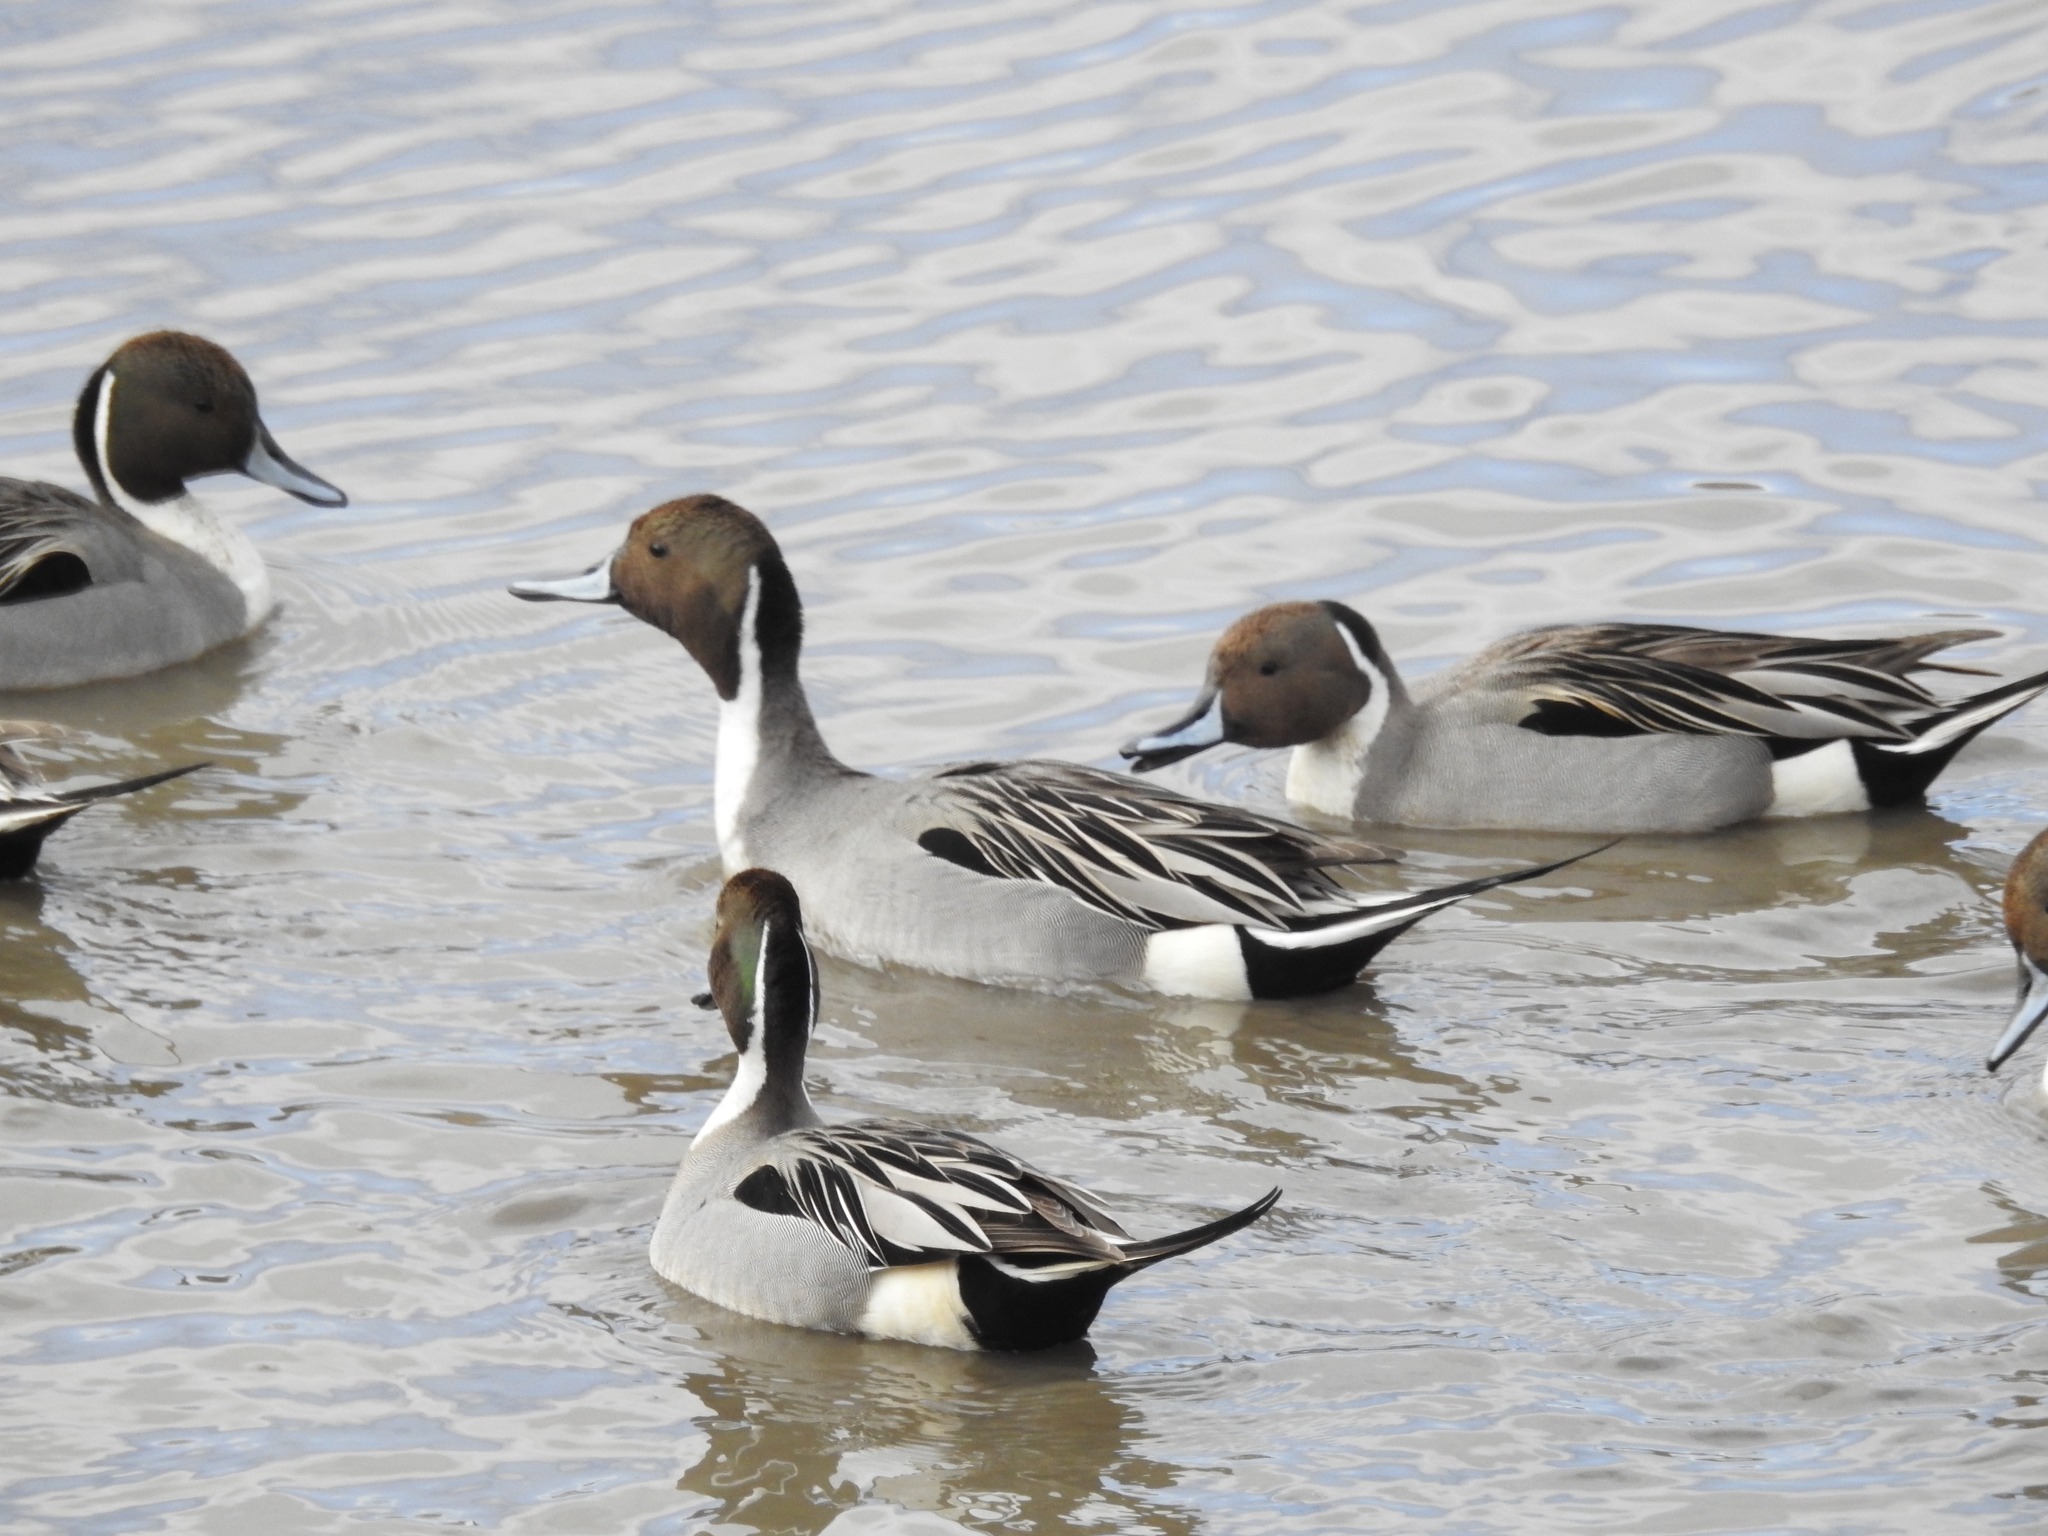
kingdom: Animalia
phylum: Chordata
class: Aves
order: Anseriformes
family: Anatidae
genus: Anas
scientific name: Anas acuta
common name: Northern pintail
